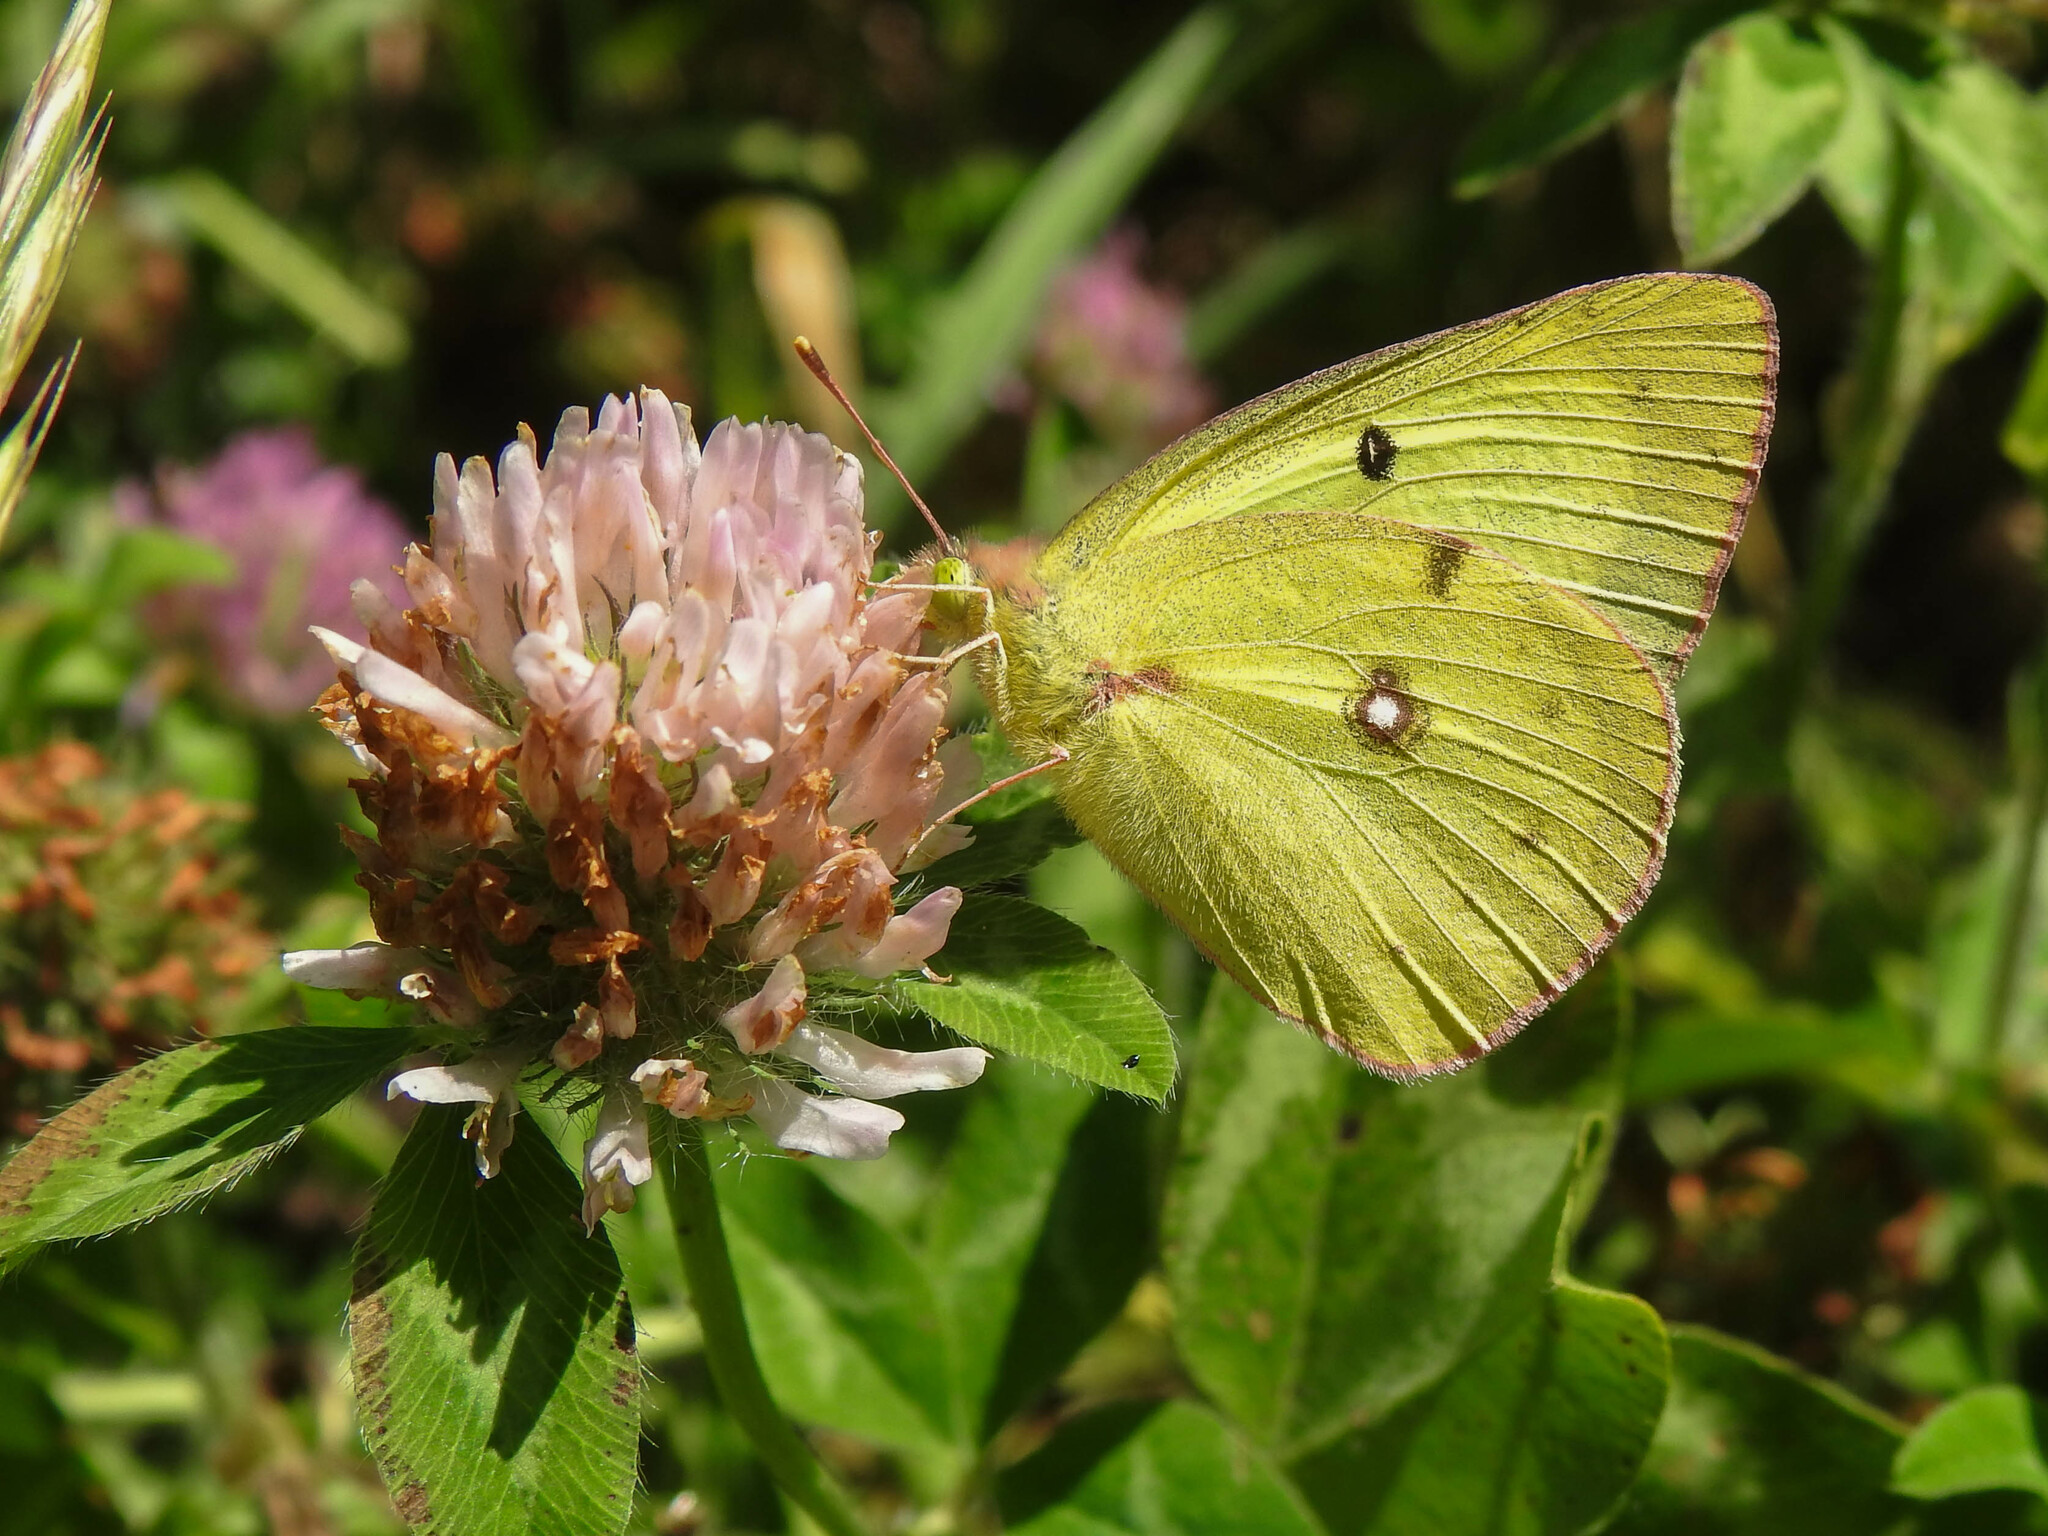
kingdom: Animalia
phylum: Arthropoda
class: Insecta
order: Lepidoptera
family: Pieridae
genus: Colias
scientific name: Colias philodice
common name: Clouded sulphur
